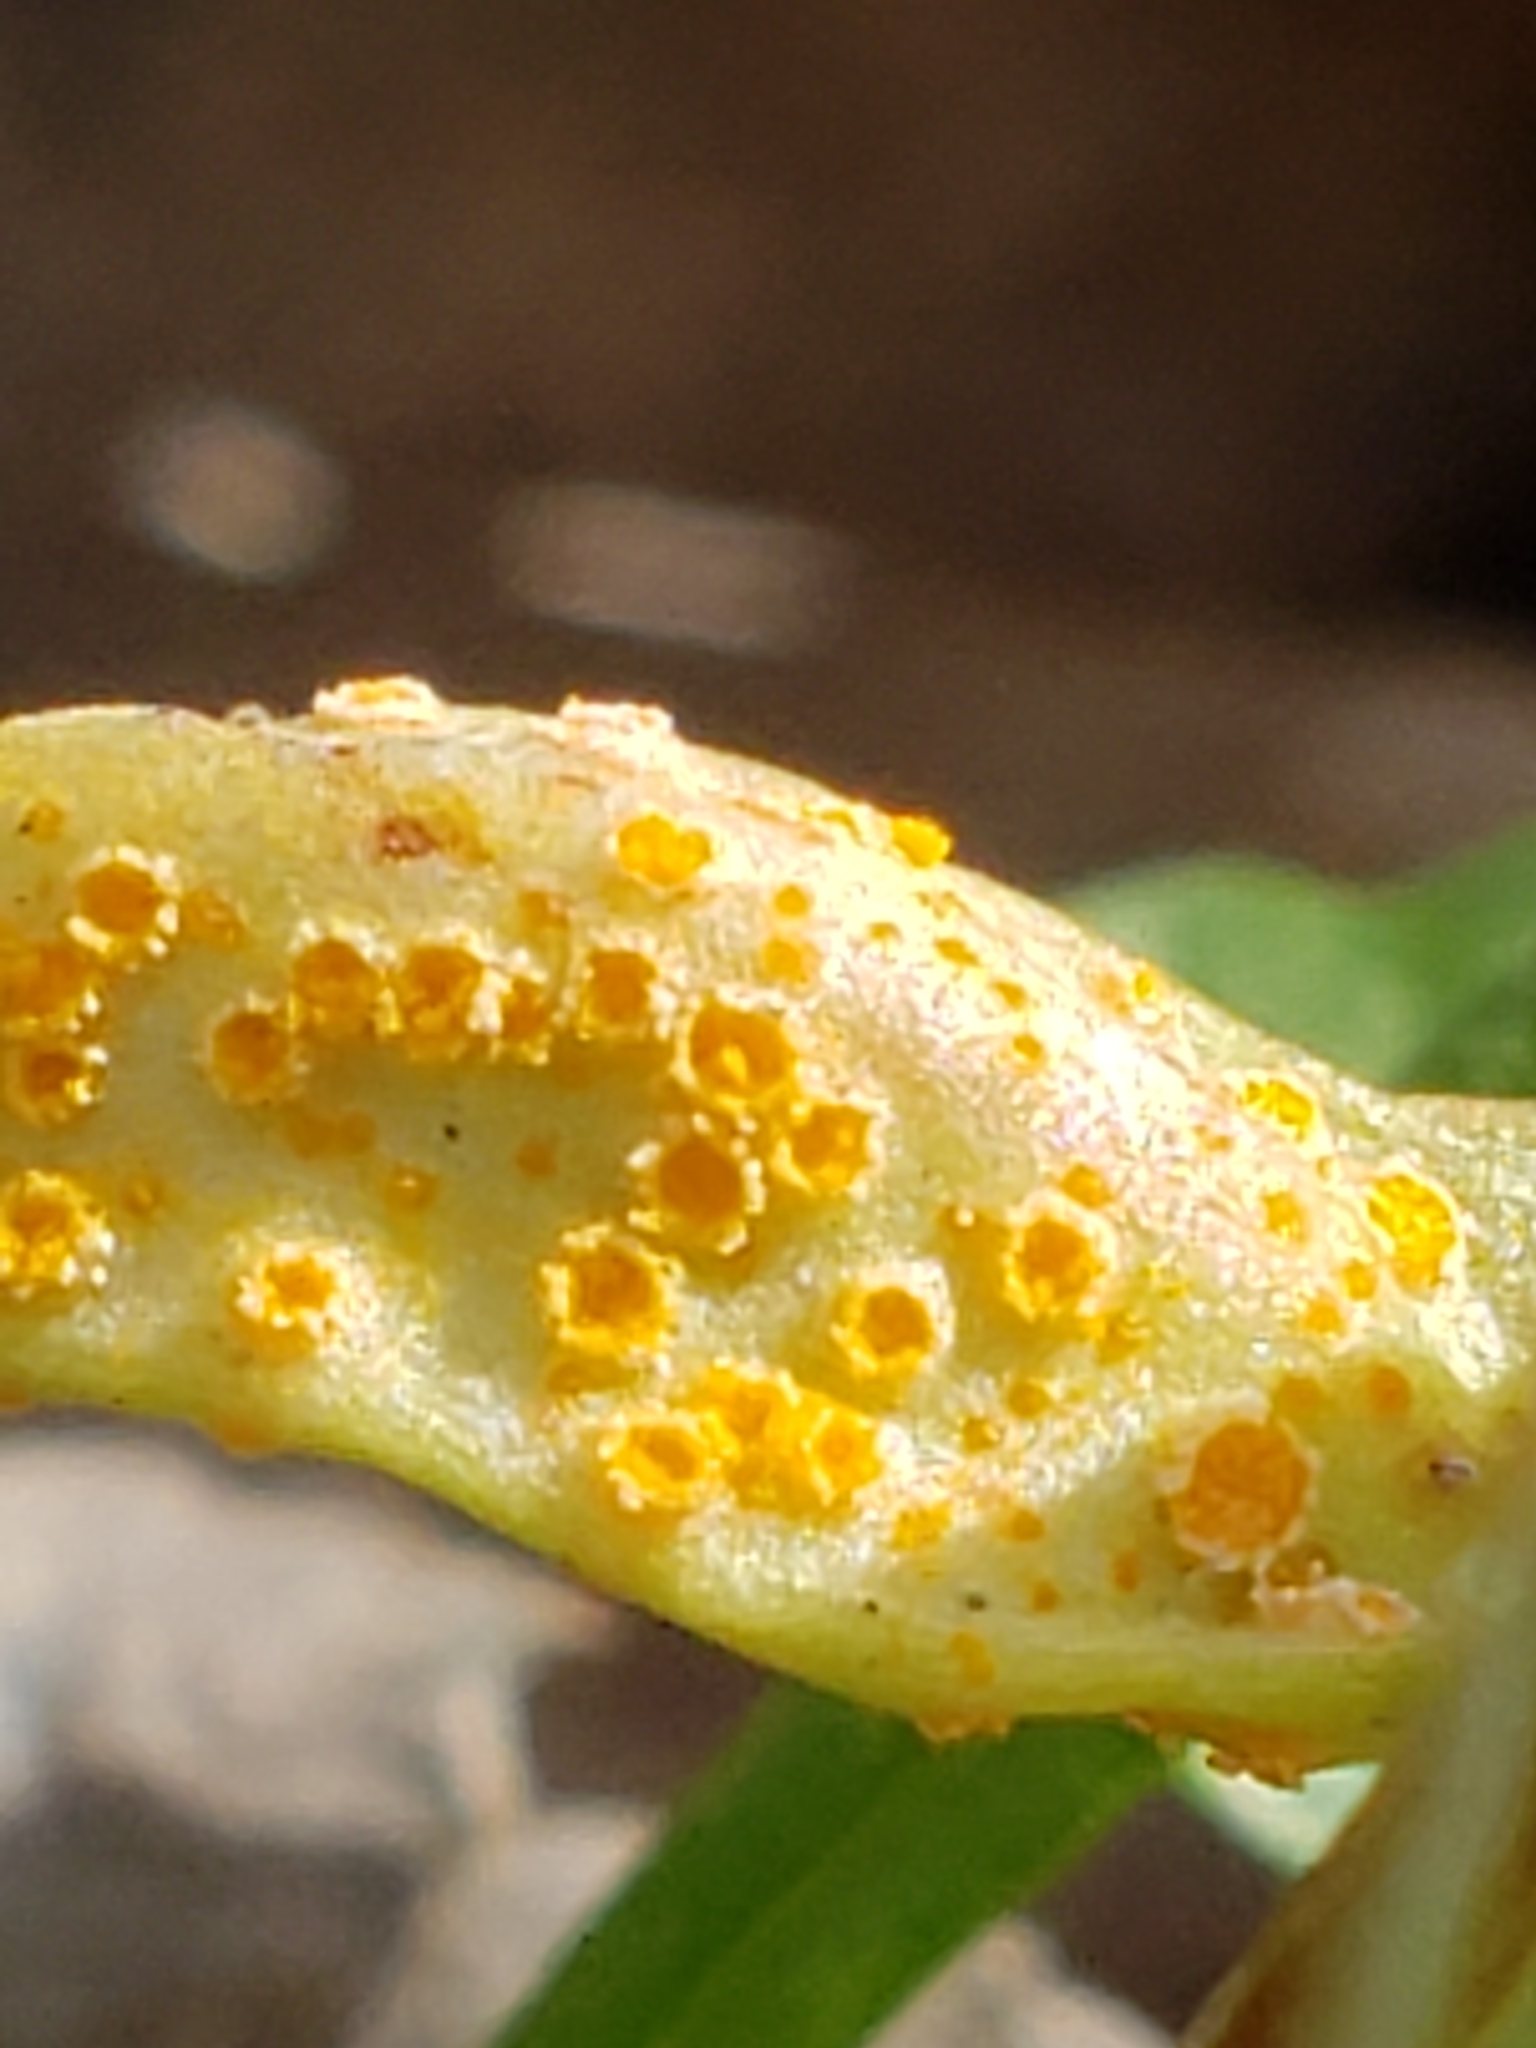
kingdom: Fungi
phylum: Basidiomycota
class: Pucciniomycetes
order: Pucciniales
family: Pucciniaceae
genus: Puccinia
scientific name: Puccinia mariae-wilsoniae
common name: Spring beauty rust
